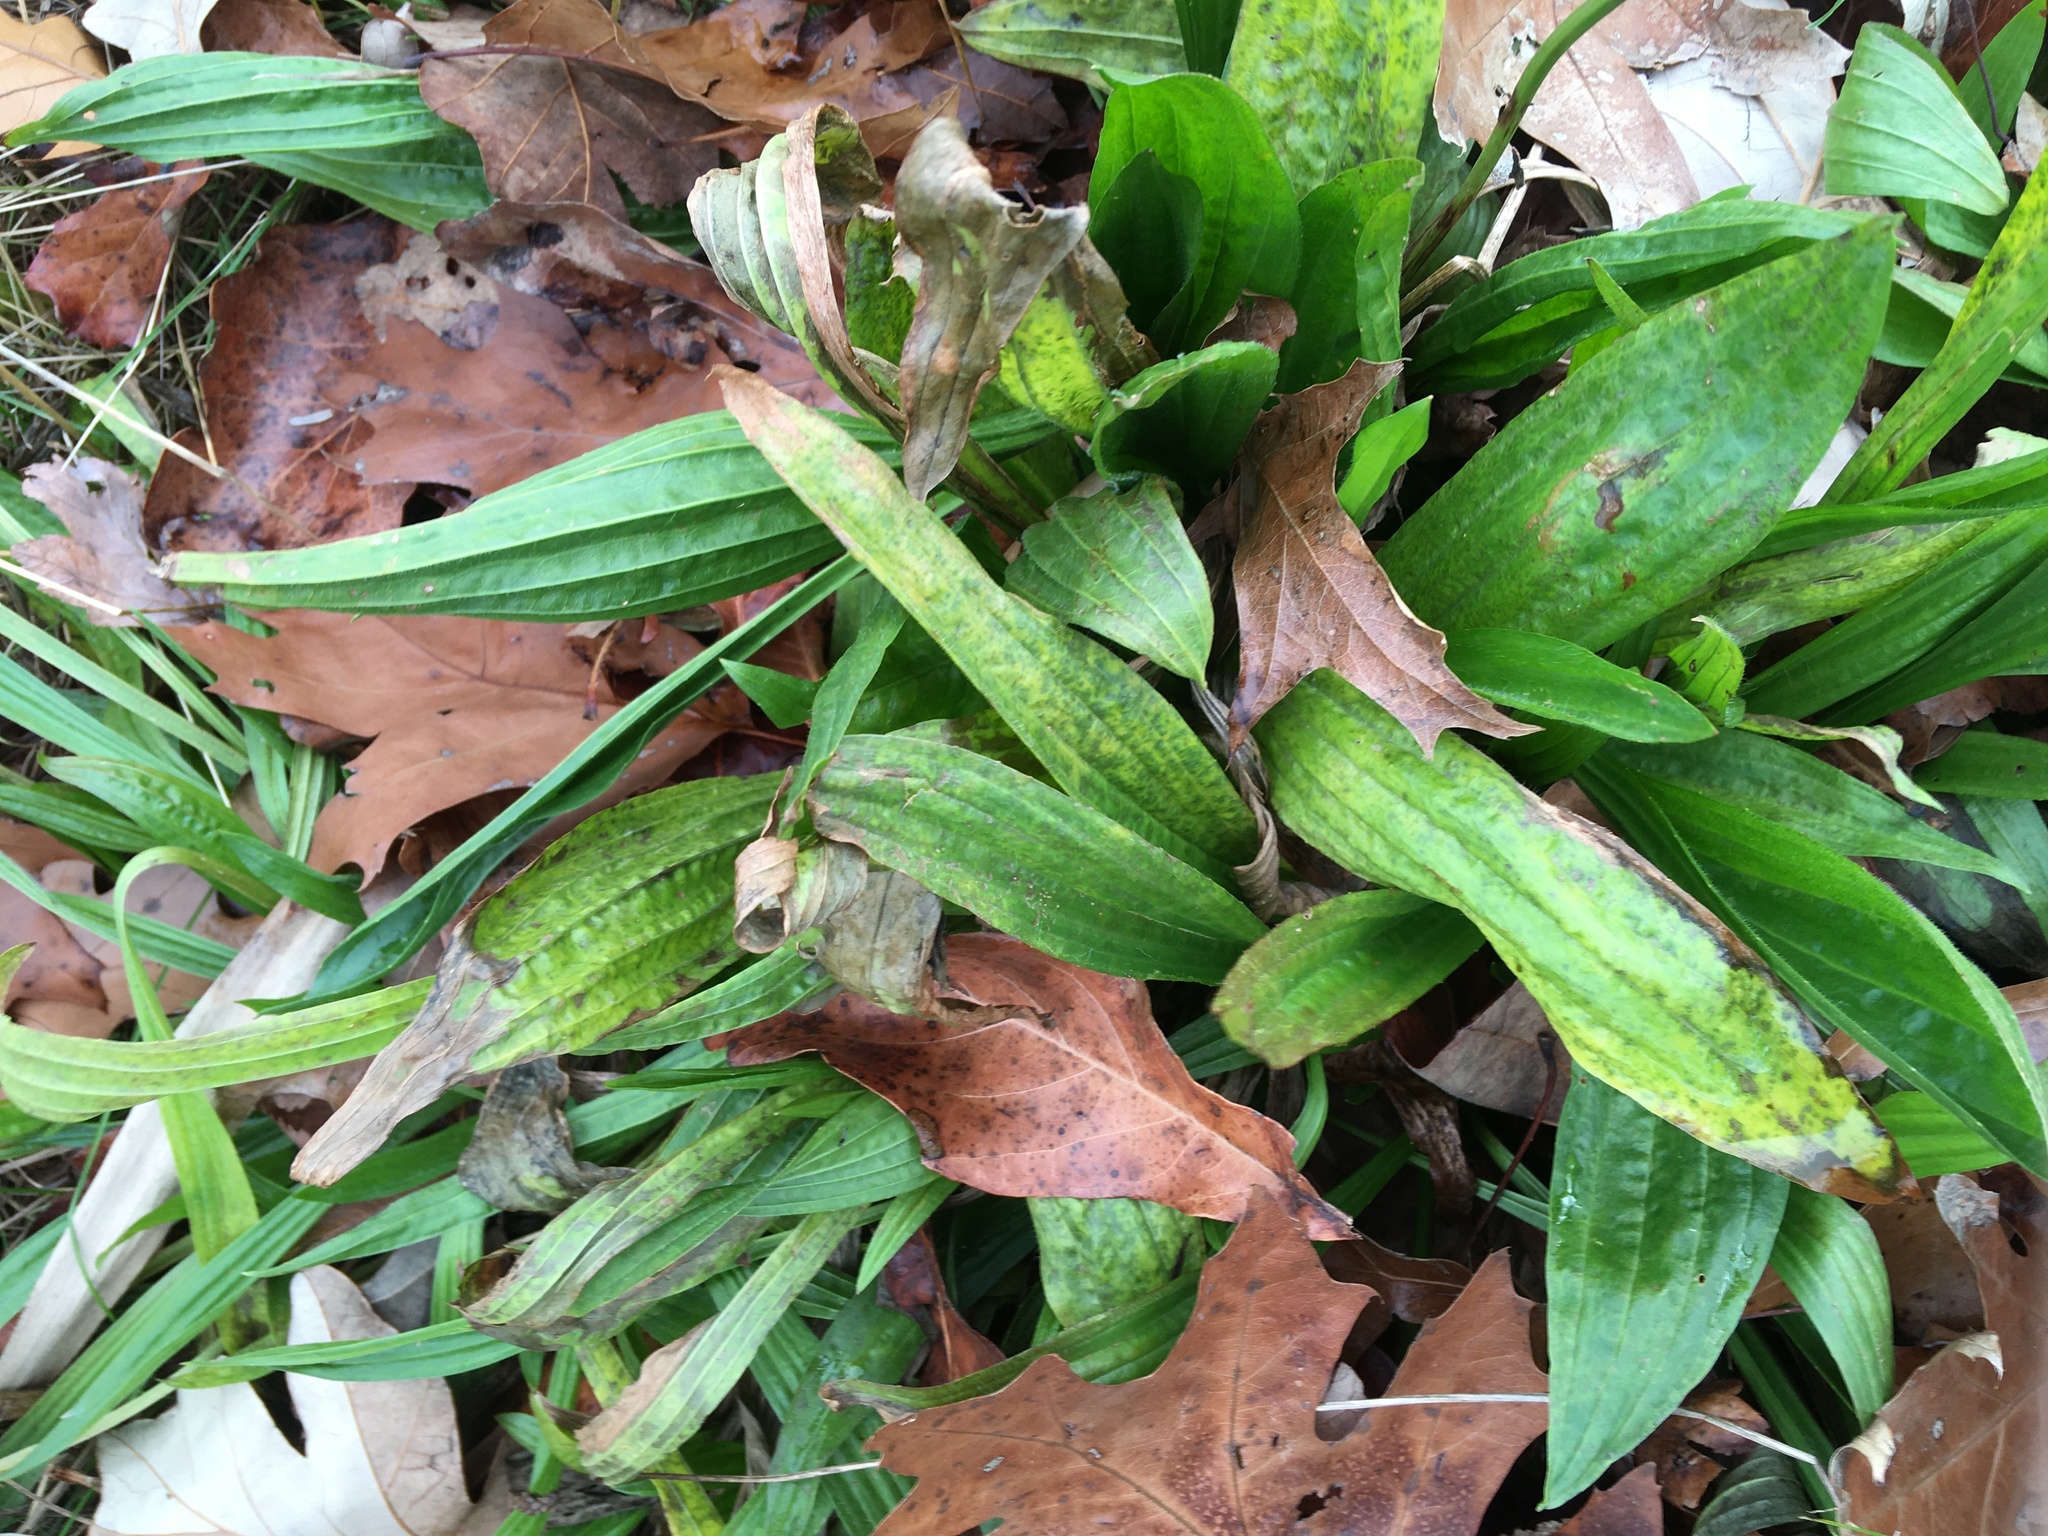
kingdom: Plantae
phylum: Tracheophyta
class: Magnoliopsida
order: Lamiales
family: Plantaginaceae
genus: Plantago
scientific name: Plantago lanceolata
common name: Ribwort plantain
